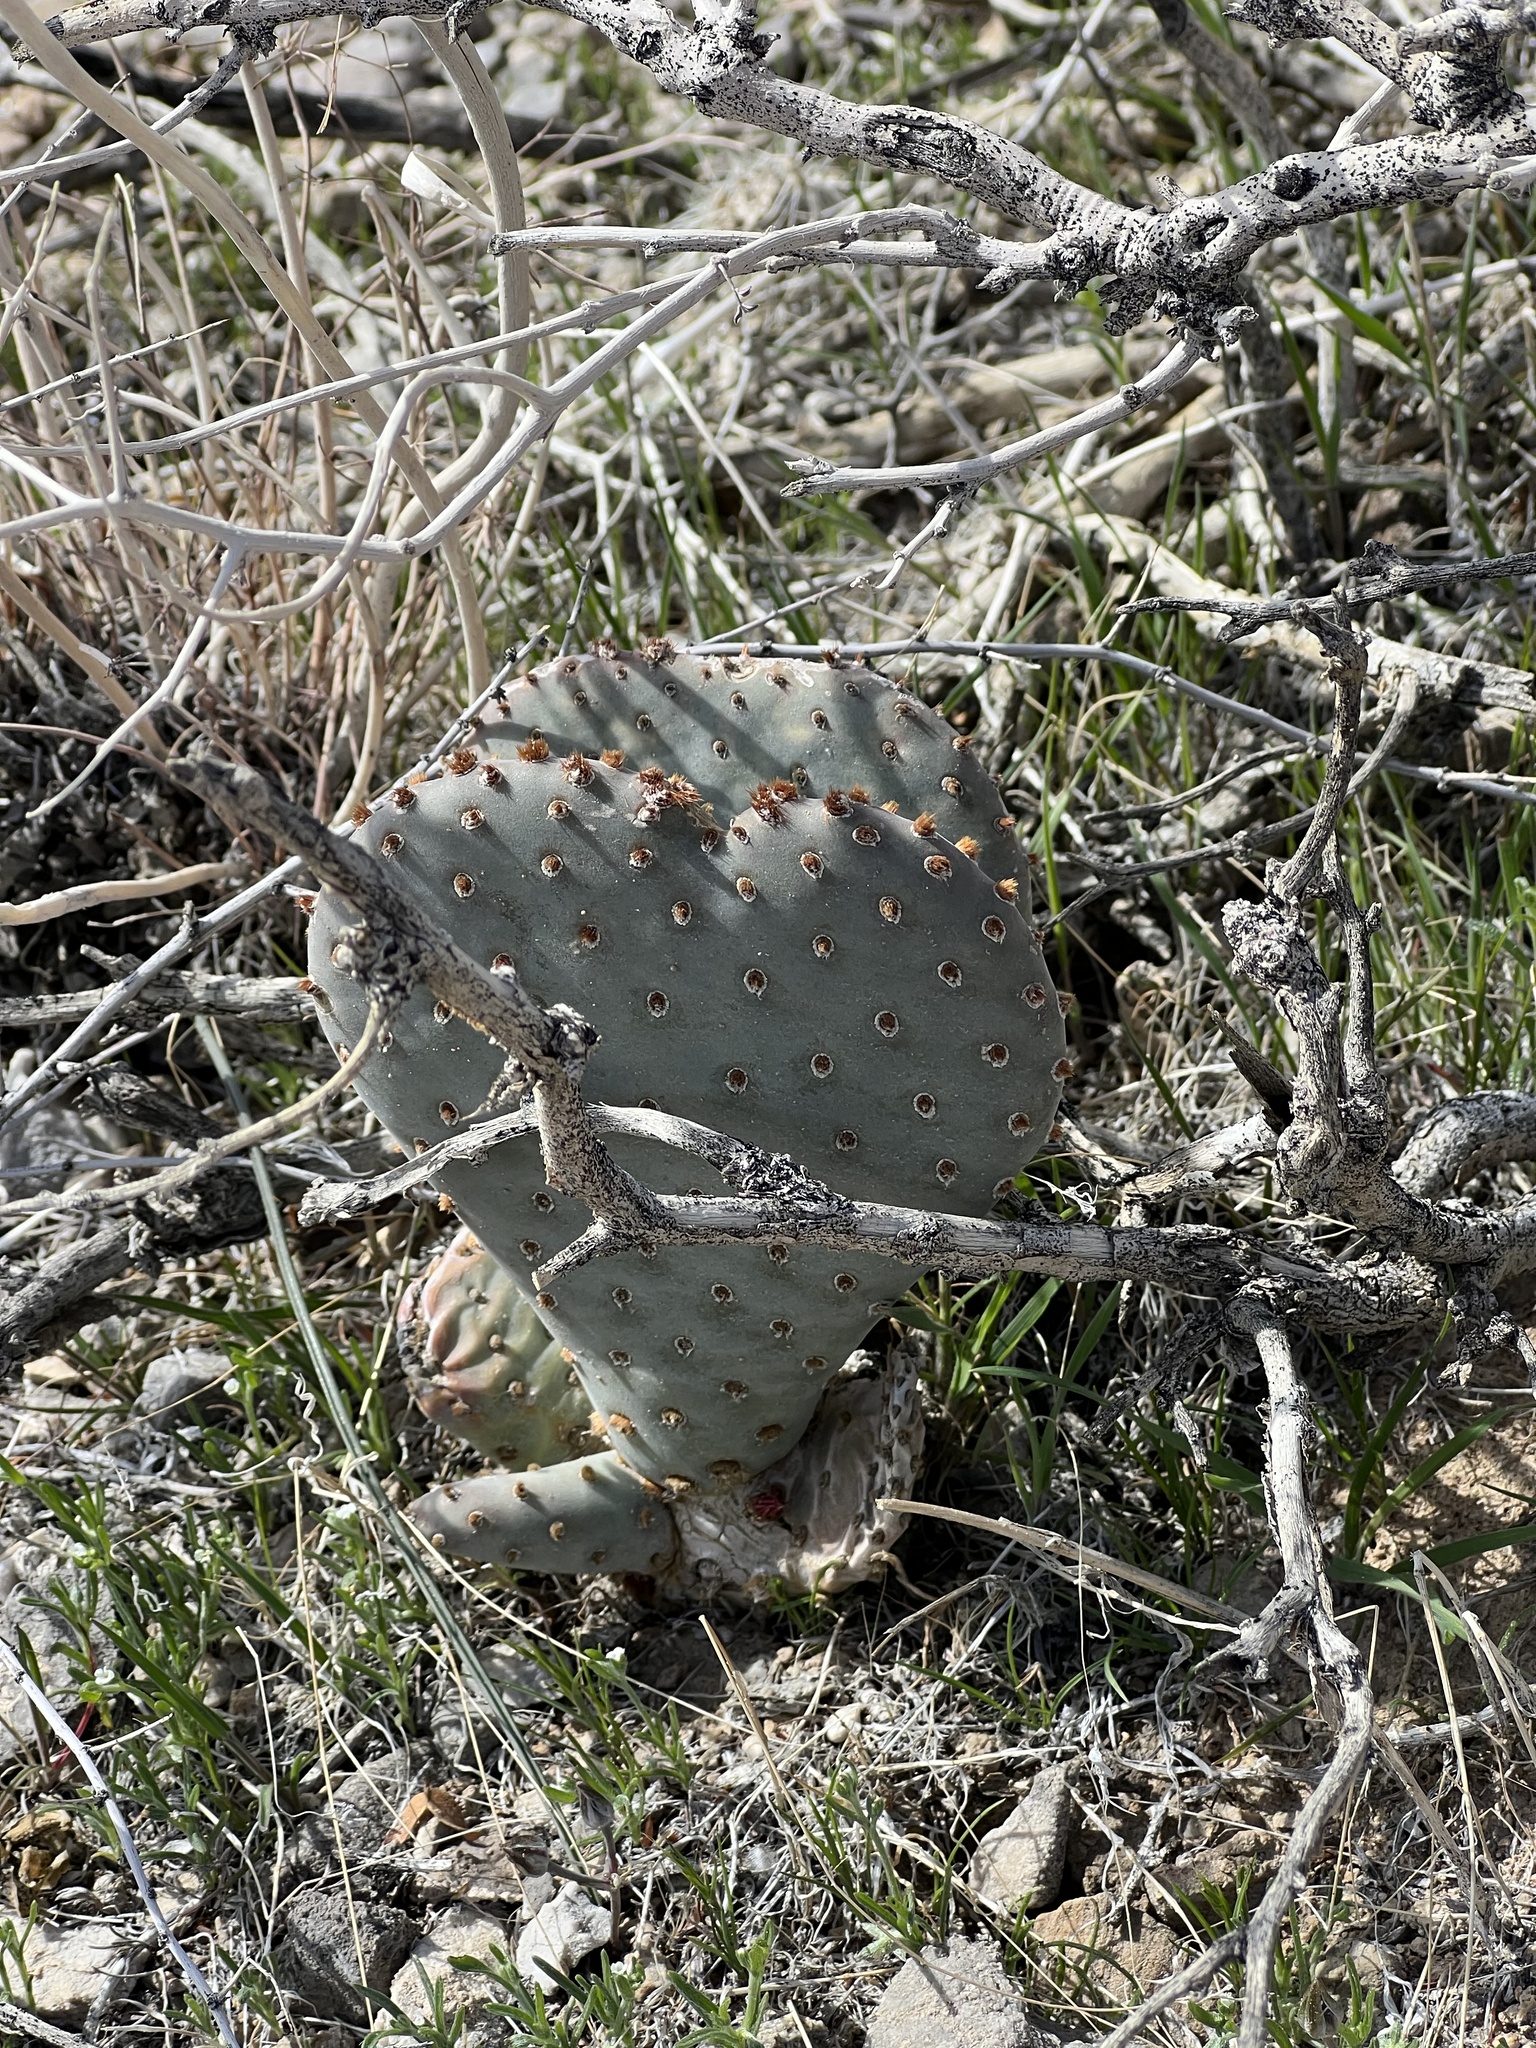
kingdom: Plantae
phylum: Tracheophyta
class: Magnoliopsida
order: Caryophyllales
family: Cactaceae
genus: Opuntia
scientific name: Opuntia basilaris
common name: Beavertail prickly-pear
